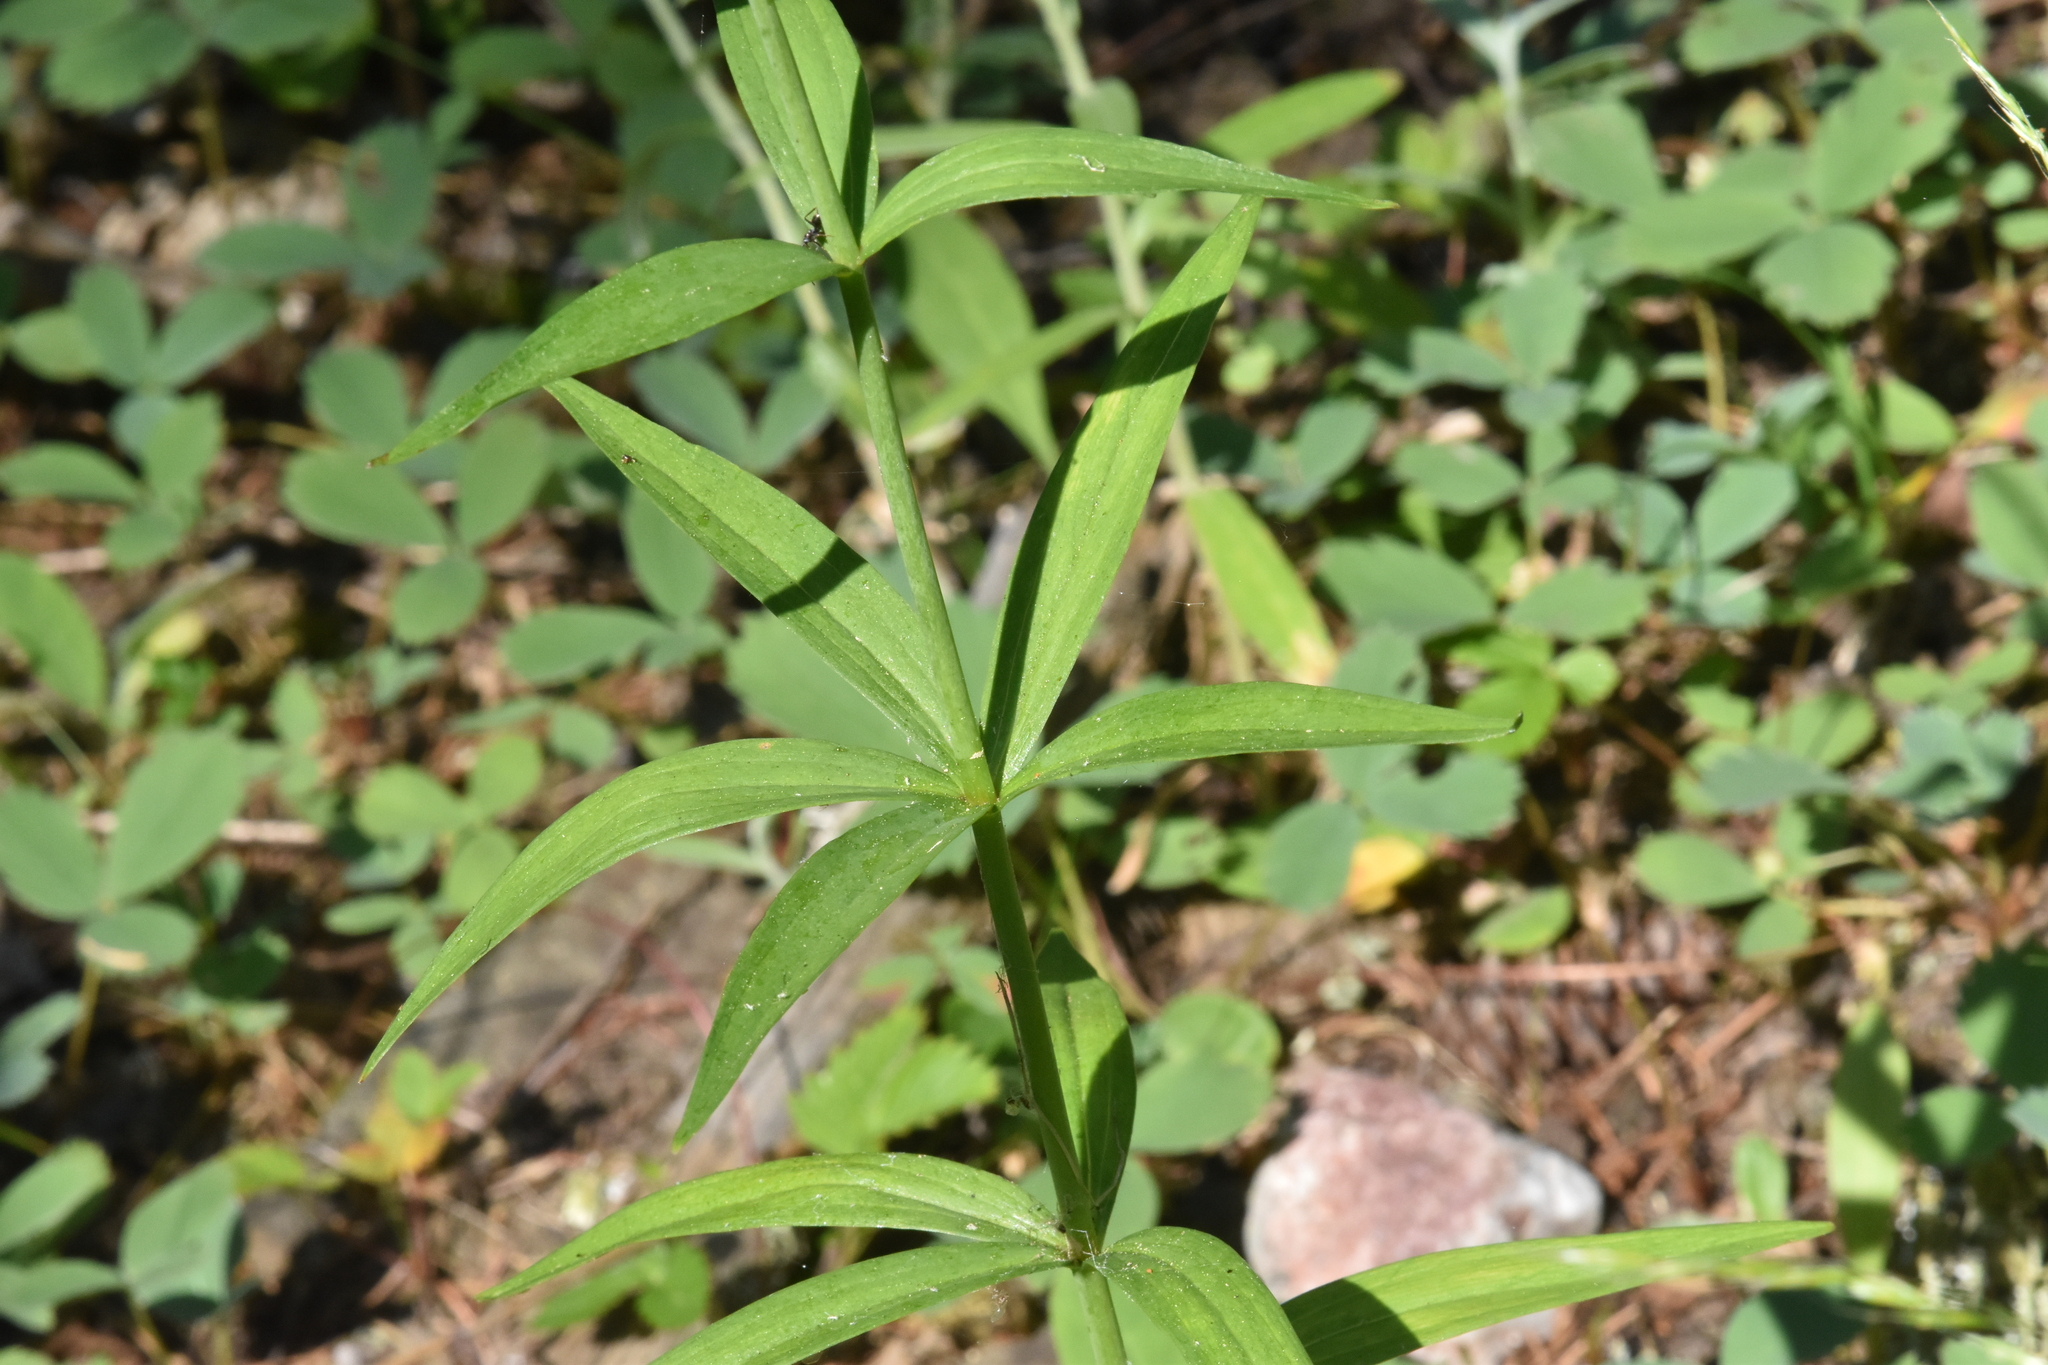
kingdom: Plantae
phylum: Tracheophyta
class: Liliopsida
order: Liliales
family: Liliaceae
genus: Lilium
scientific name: Lilium columbianum
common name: Columbia lily
